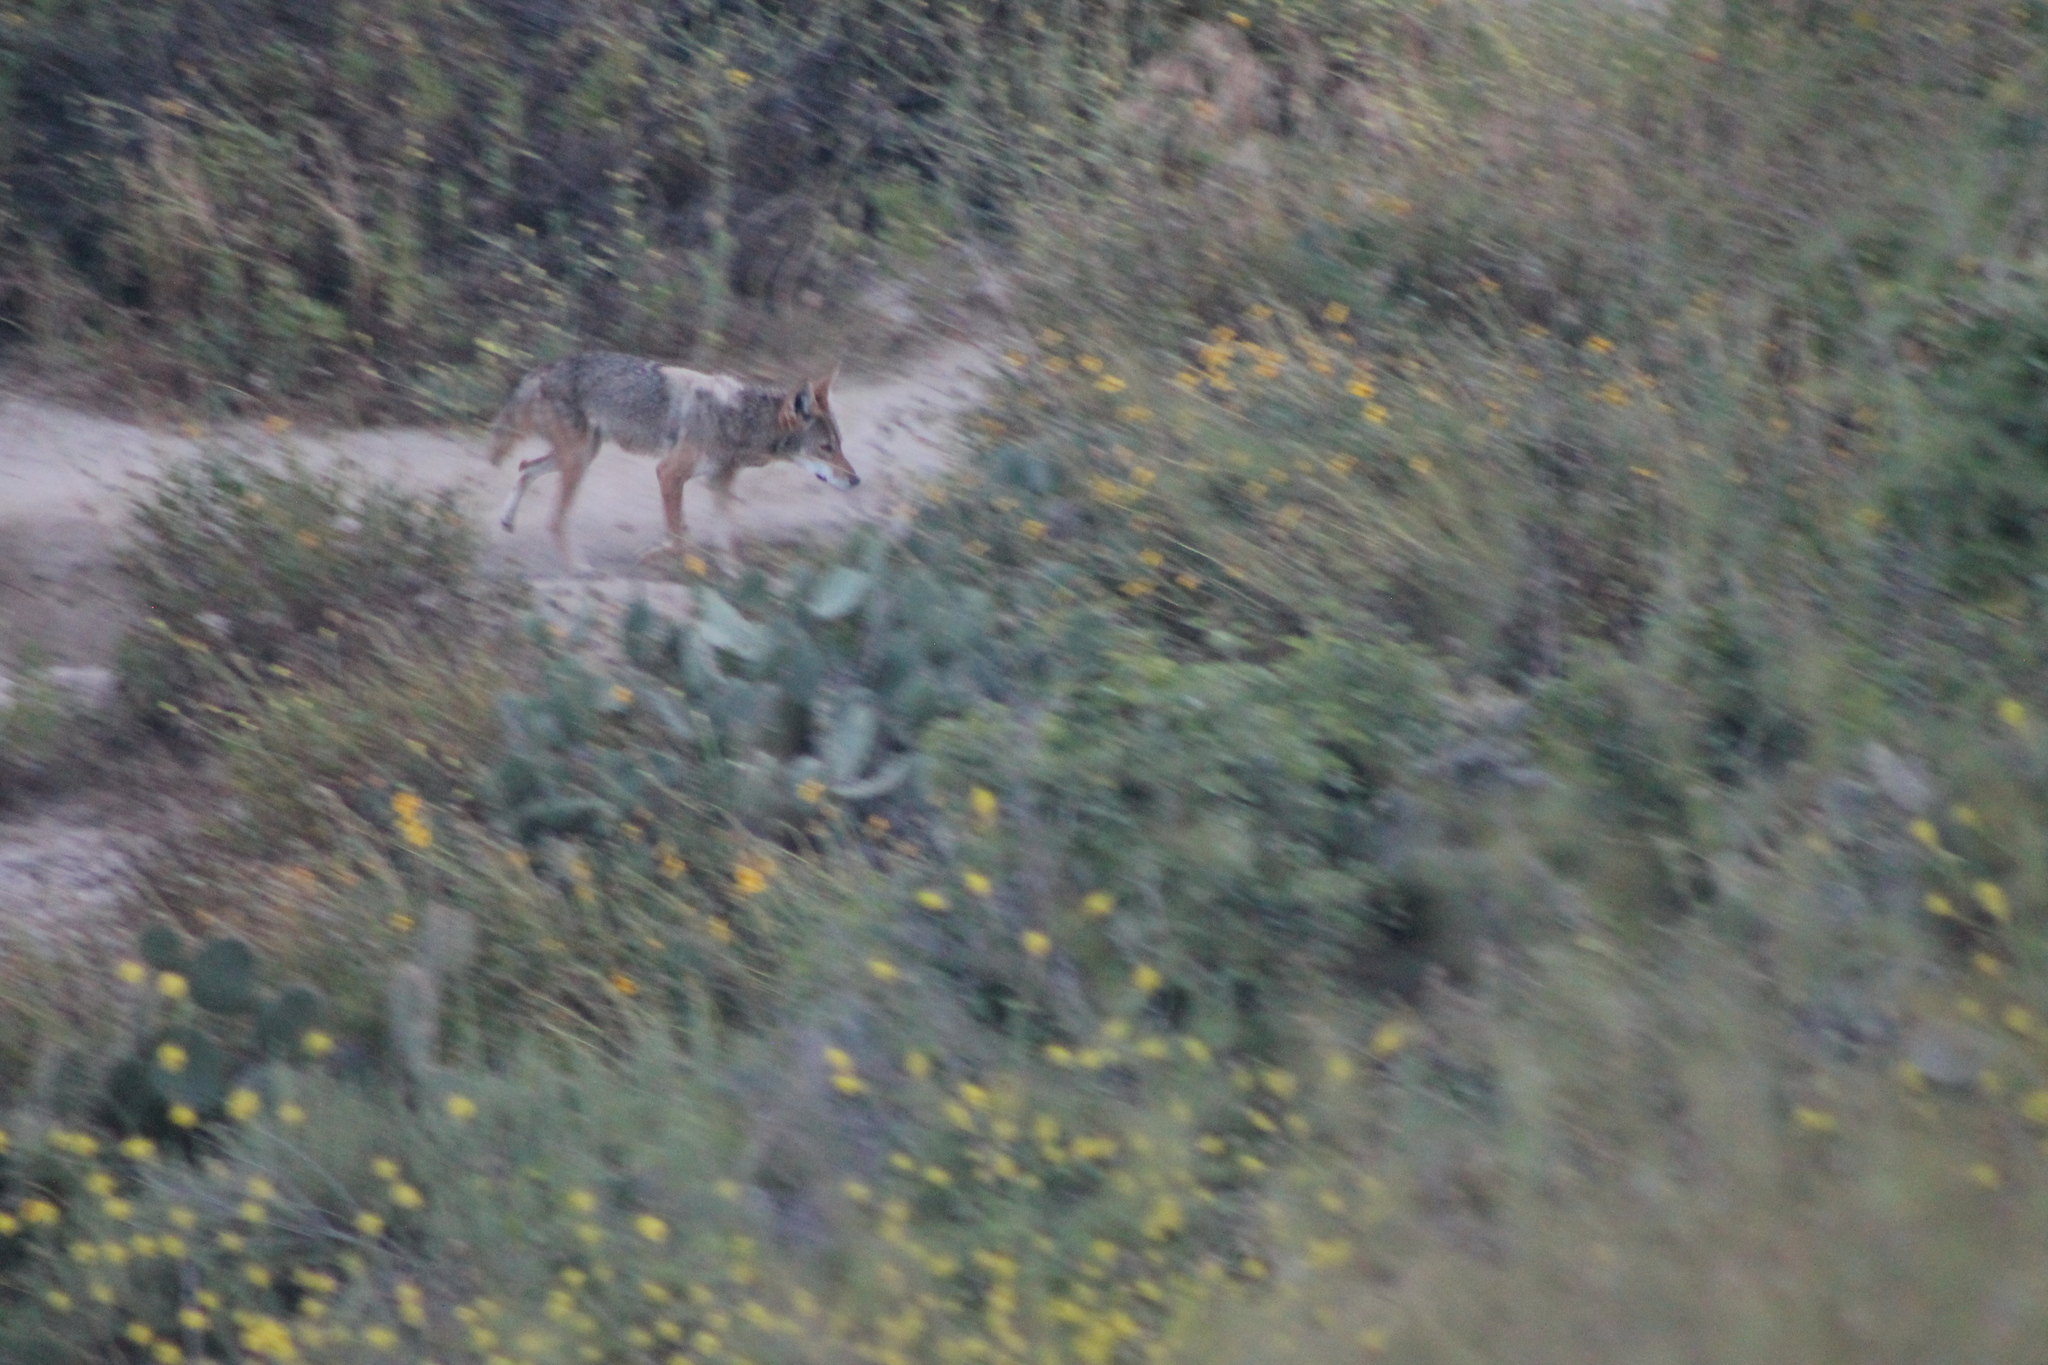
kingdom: Animalia
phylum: Chordata
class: Mammalia
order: Carnivora
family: Canidae
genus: Canis
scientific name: Canis latrans
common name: Coyote
